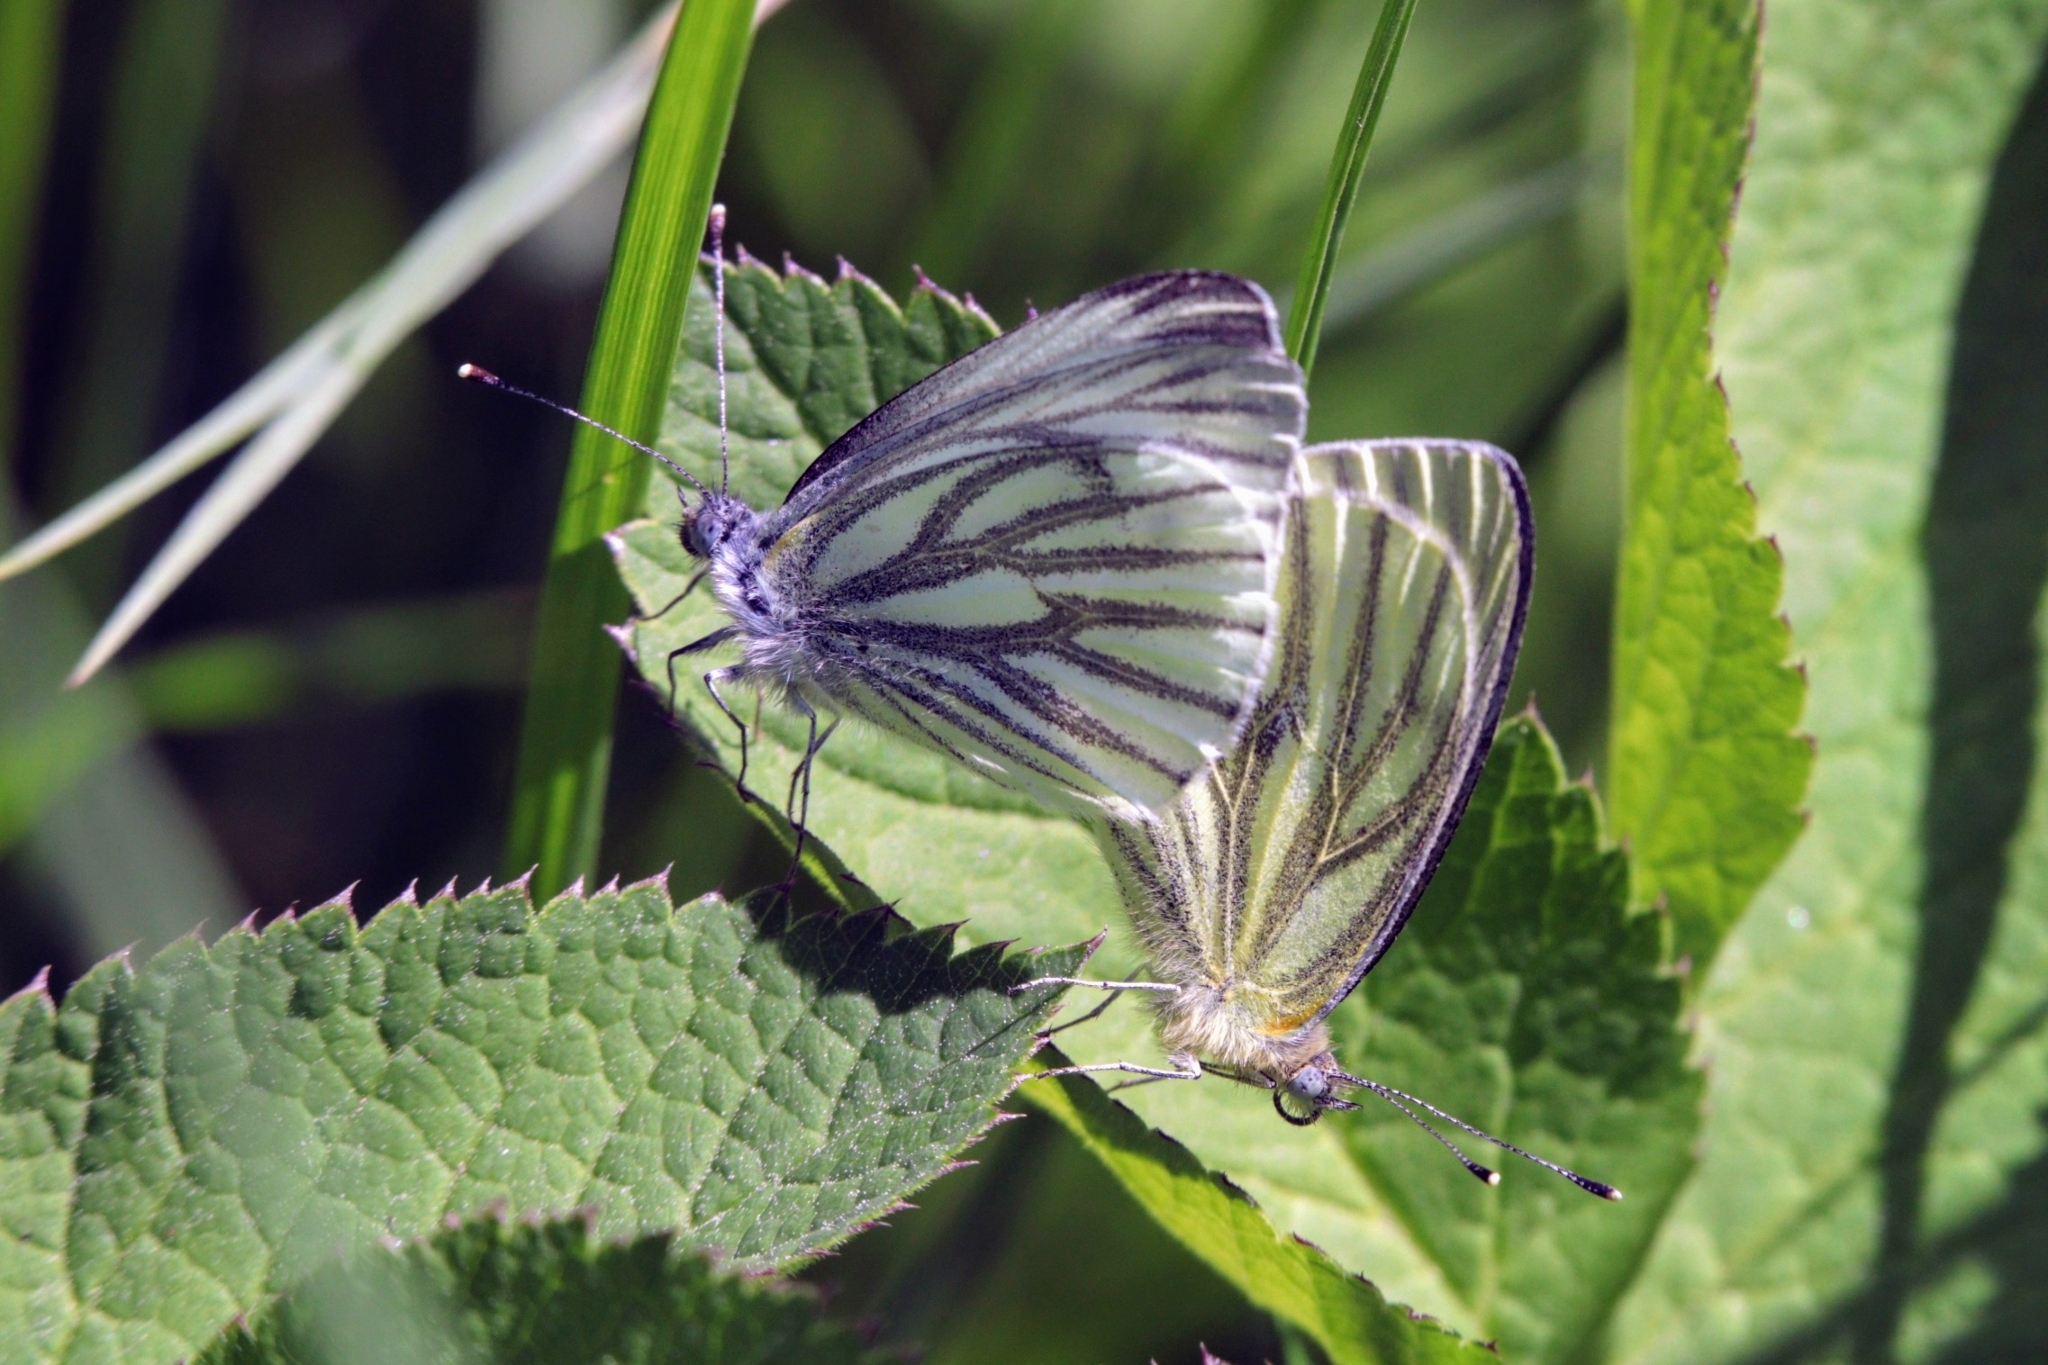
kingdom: Animalia
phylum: Arthropoda
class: Insecta
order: Lepidoptera
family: Pieridae
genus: Pieris
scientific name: Pieris napi
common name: Green-veined white
